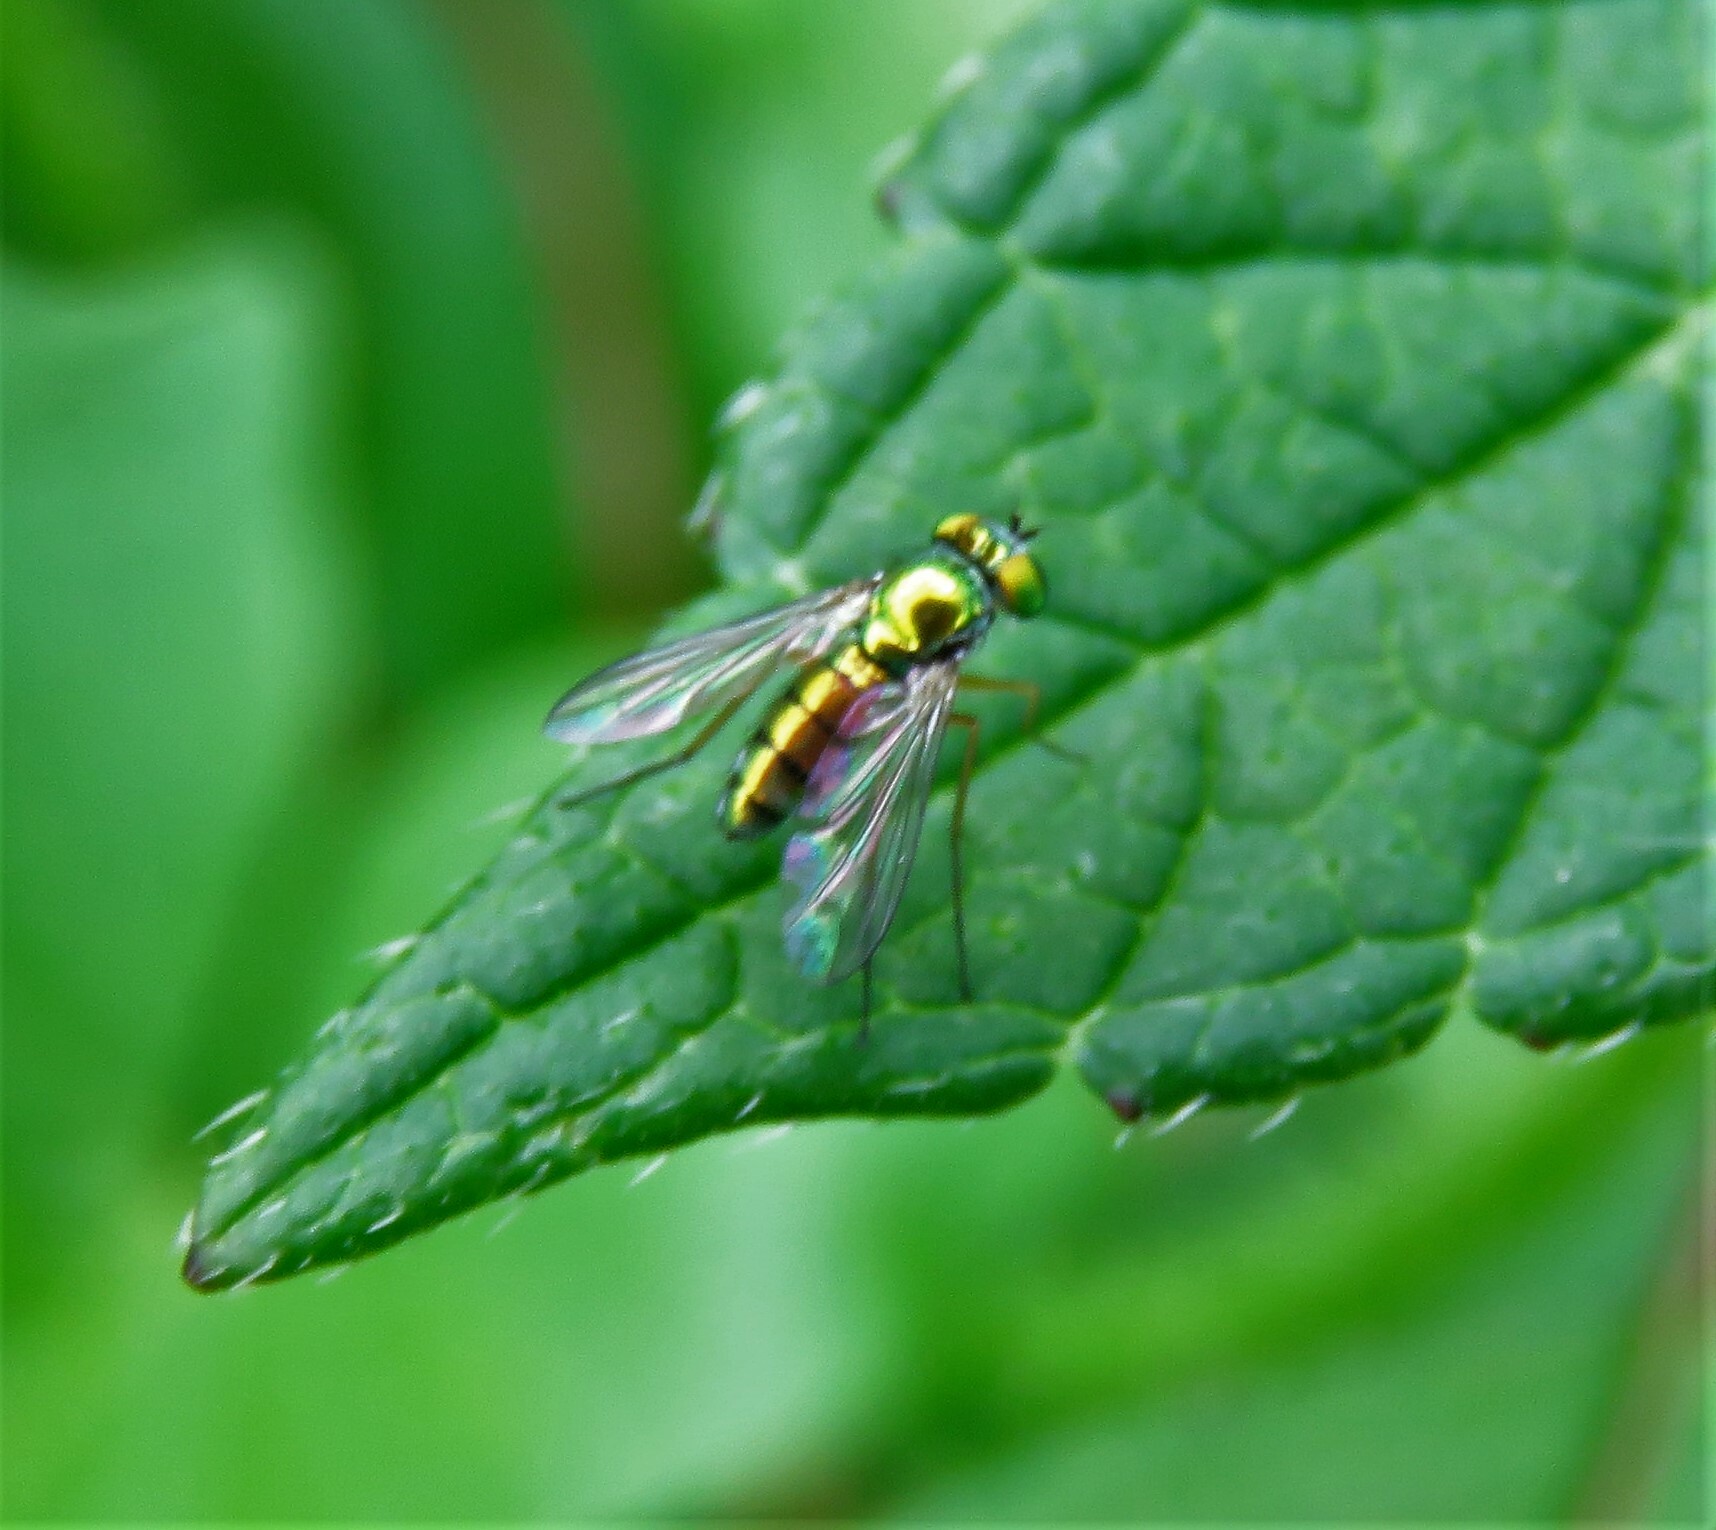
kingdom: Animalia
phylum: Arthropoda
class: Insecta
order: Diptera
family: Dolichopodidae
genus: Condylostylus
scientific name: Condylostylus
